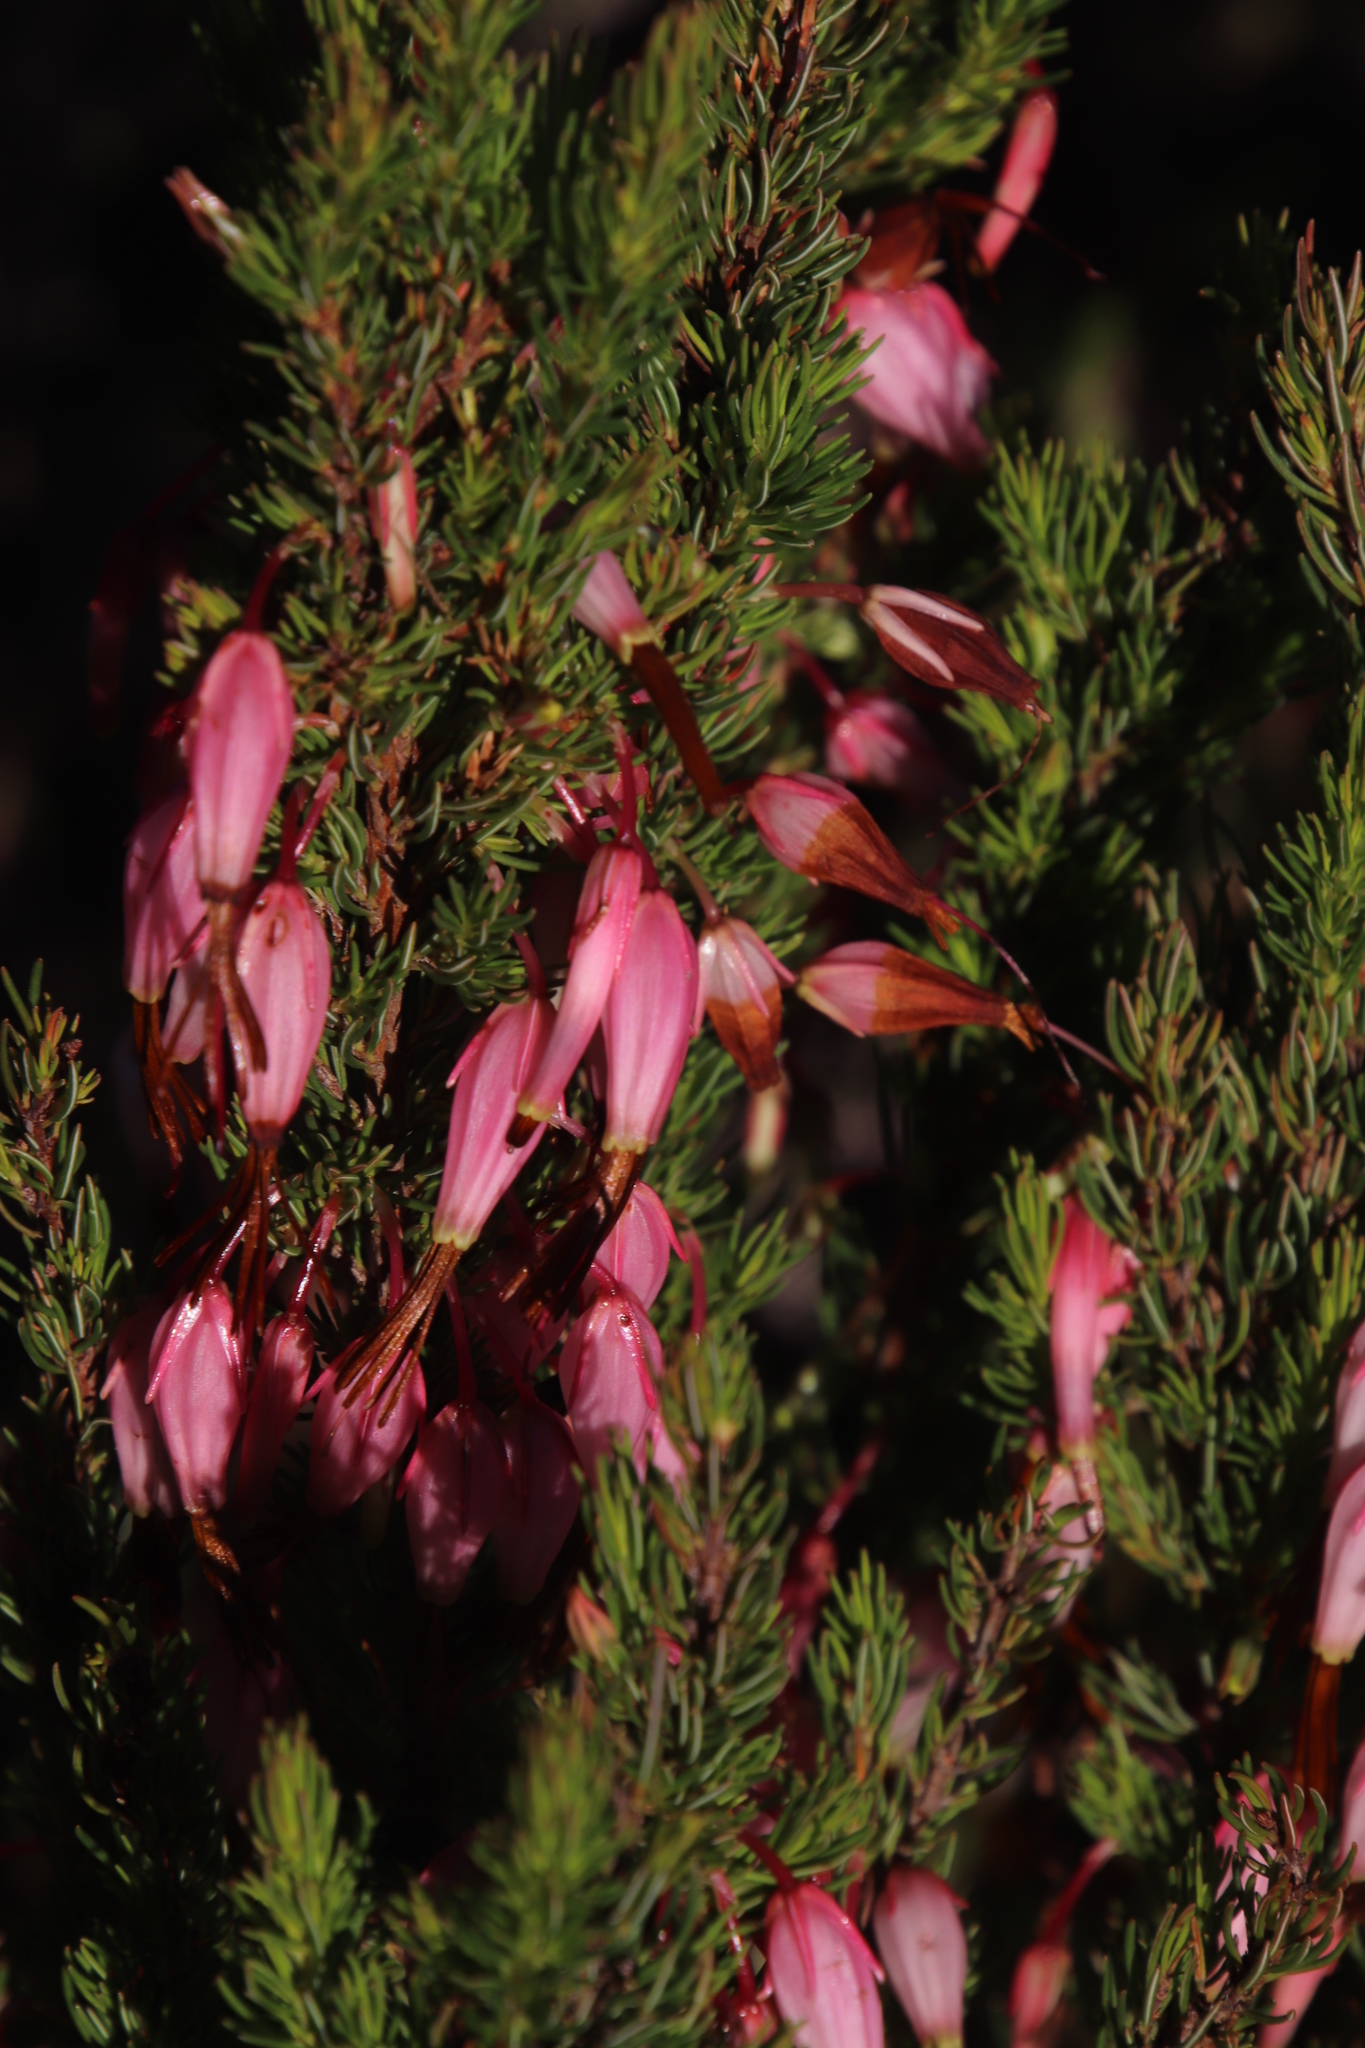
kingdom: Plantae
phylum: Tracheophyta
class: Magnoliopsida
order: Ericales
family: Ericaceae
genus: Erica
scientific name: Erica plukenetii
